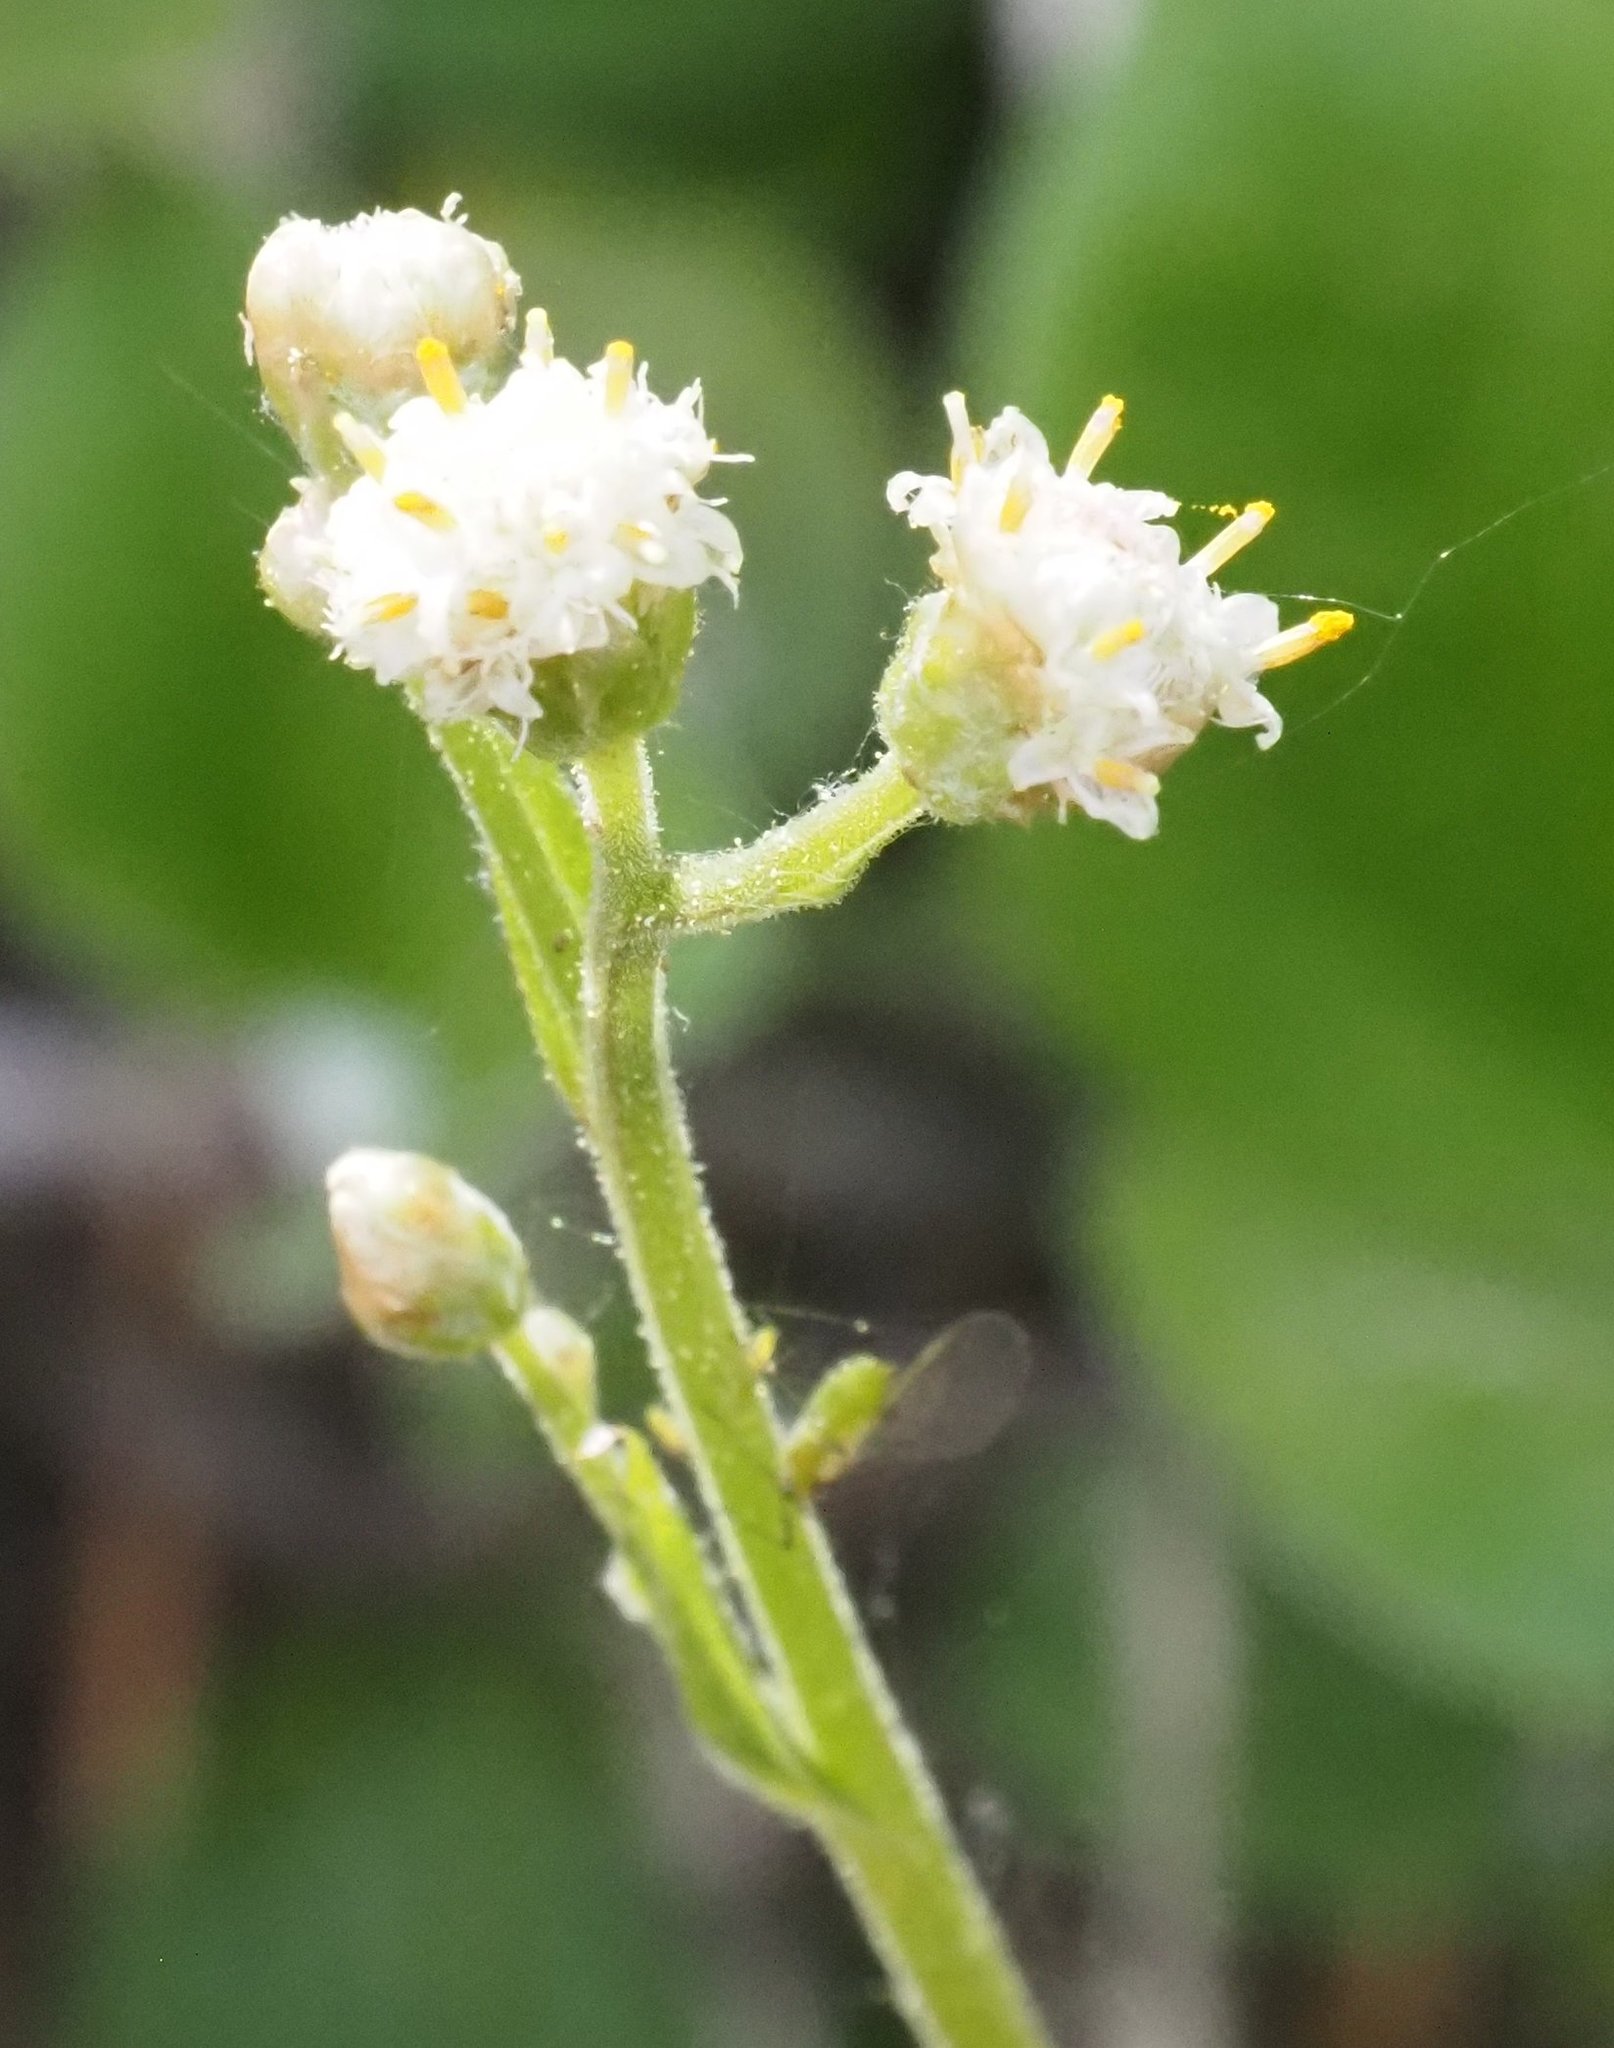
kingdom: Plantae
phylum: Tracheophyta
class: Magnoliopsida
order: Asterales
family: Asteraceae
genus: Antennaria
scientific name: Antennaria racemosa
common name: Racemose pussytoes
